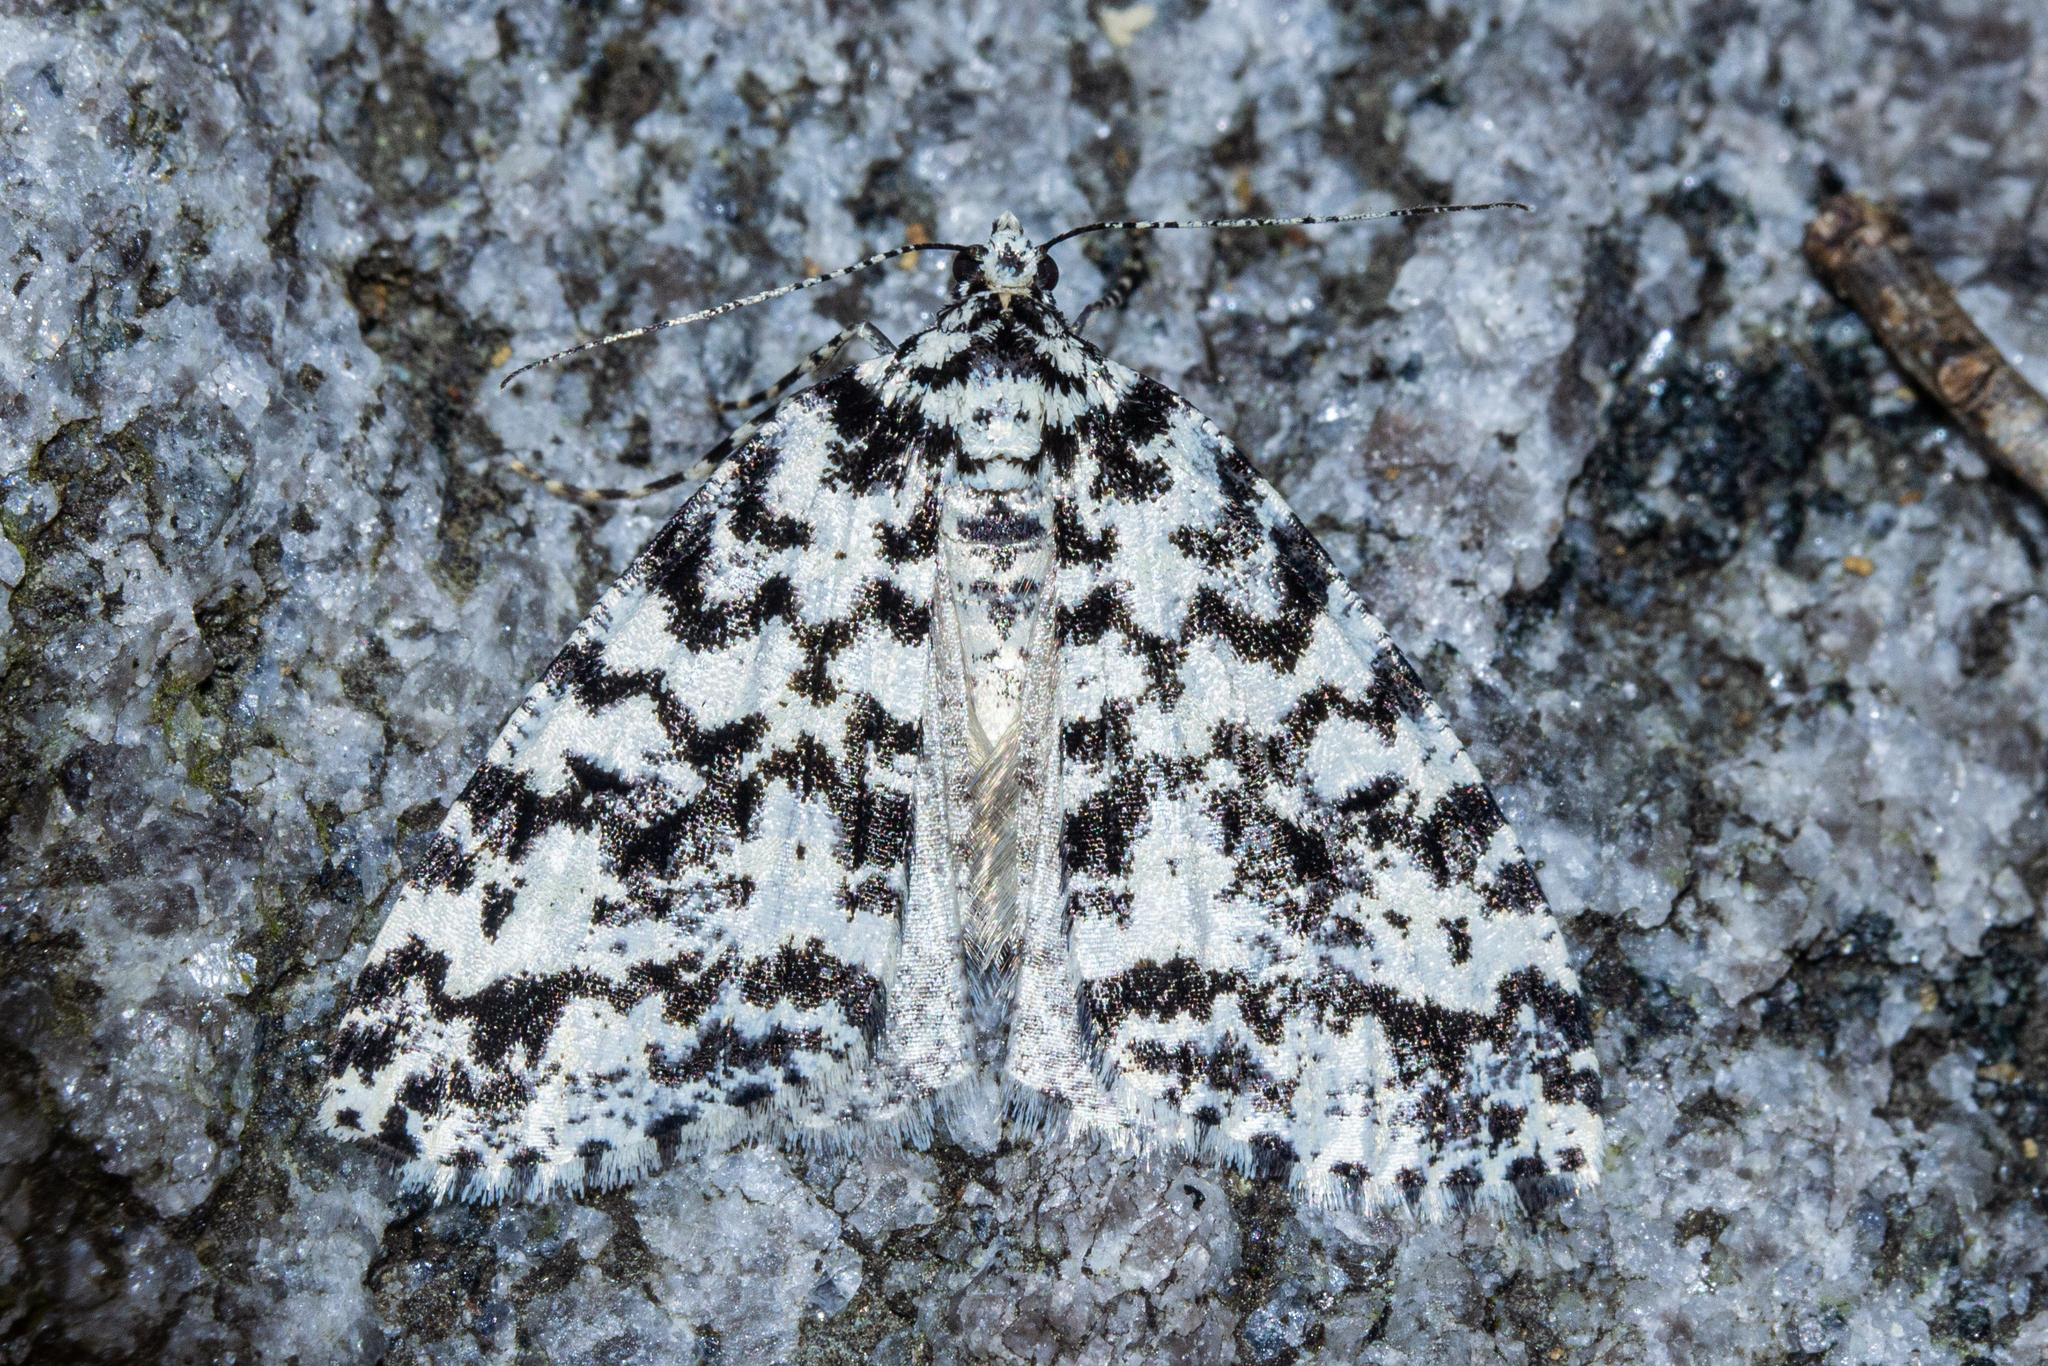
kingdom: Animalia
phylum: Arthropoda
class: Insecta
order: Lepidoptera
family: Geometridae
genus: Pseudocoremia
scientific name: Pseudocoremia monacha
